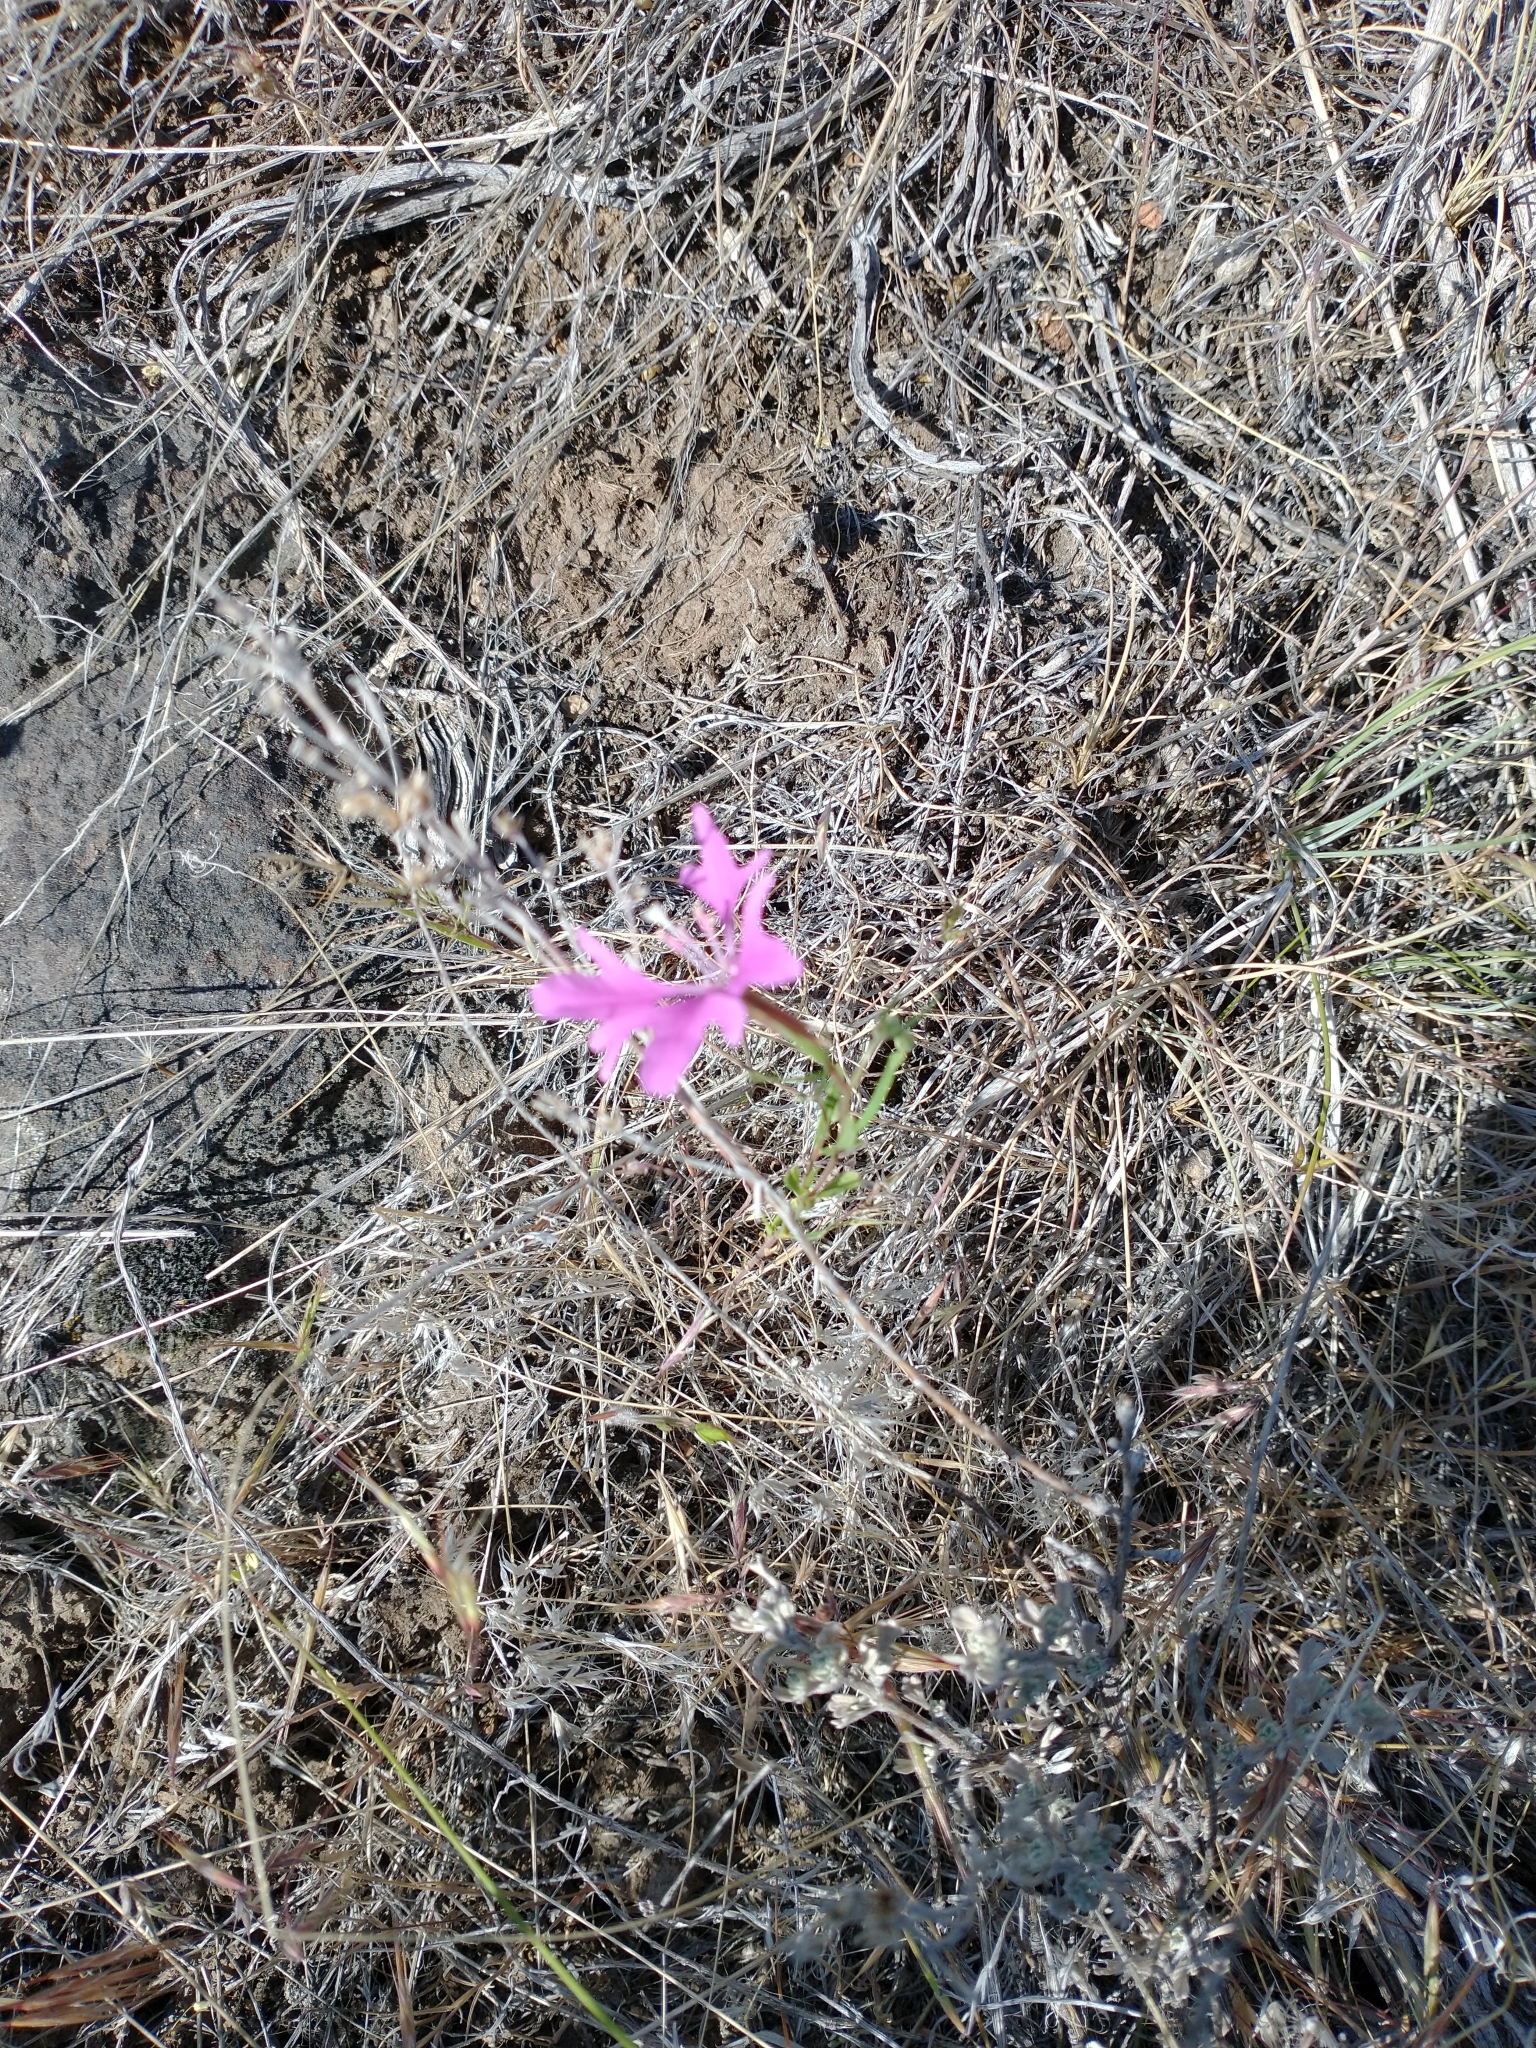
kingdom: Plantae
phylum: Tracheophyta
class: Magnoliopsida
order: Myrtales
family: Onagraceae
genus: Clarkia
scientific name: Clarkia pulchella
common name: Deer horn
